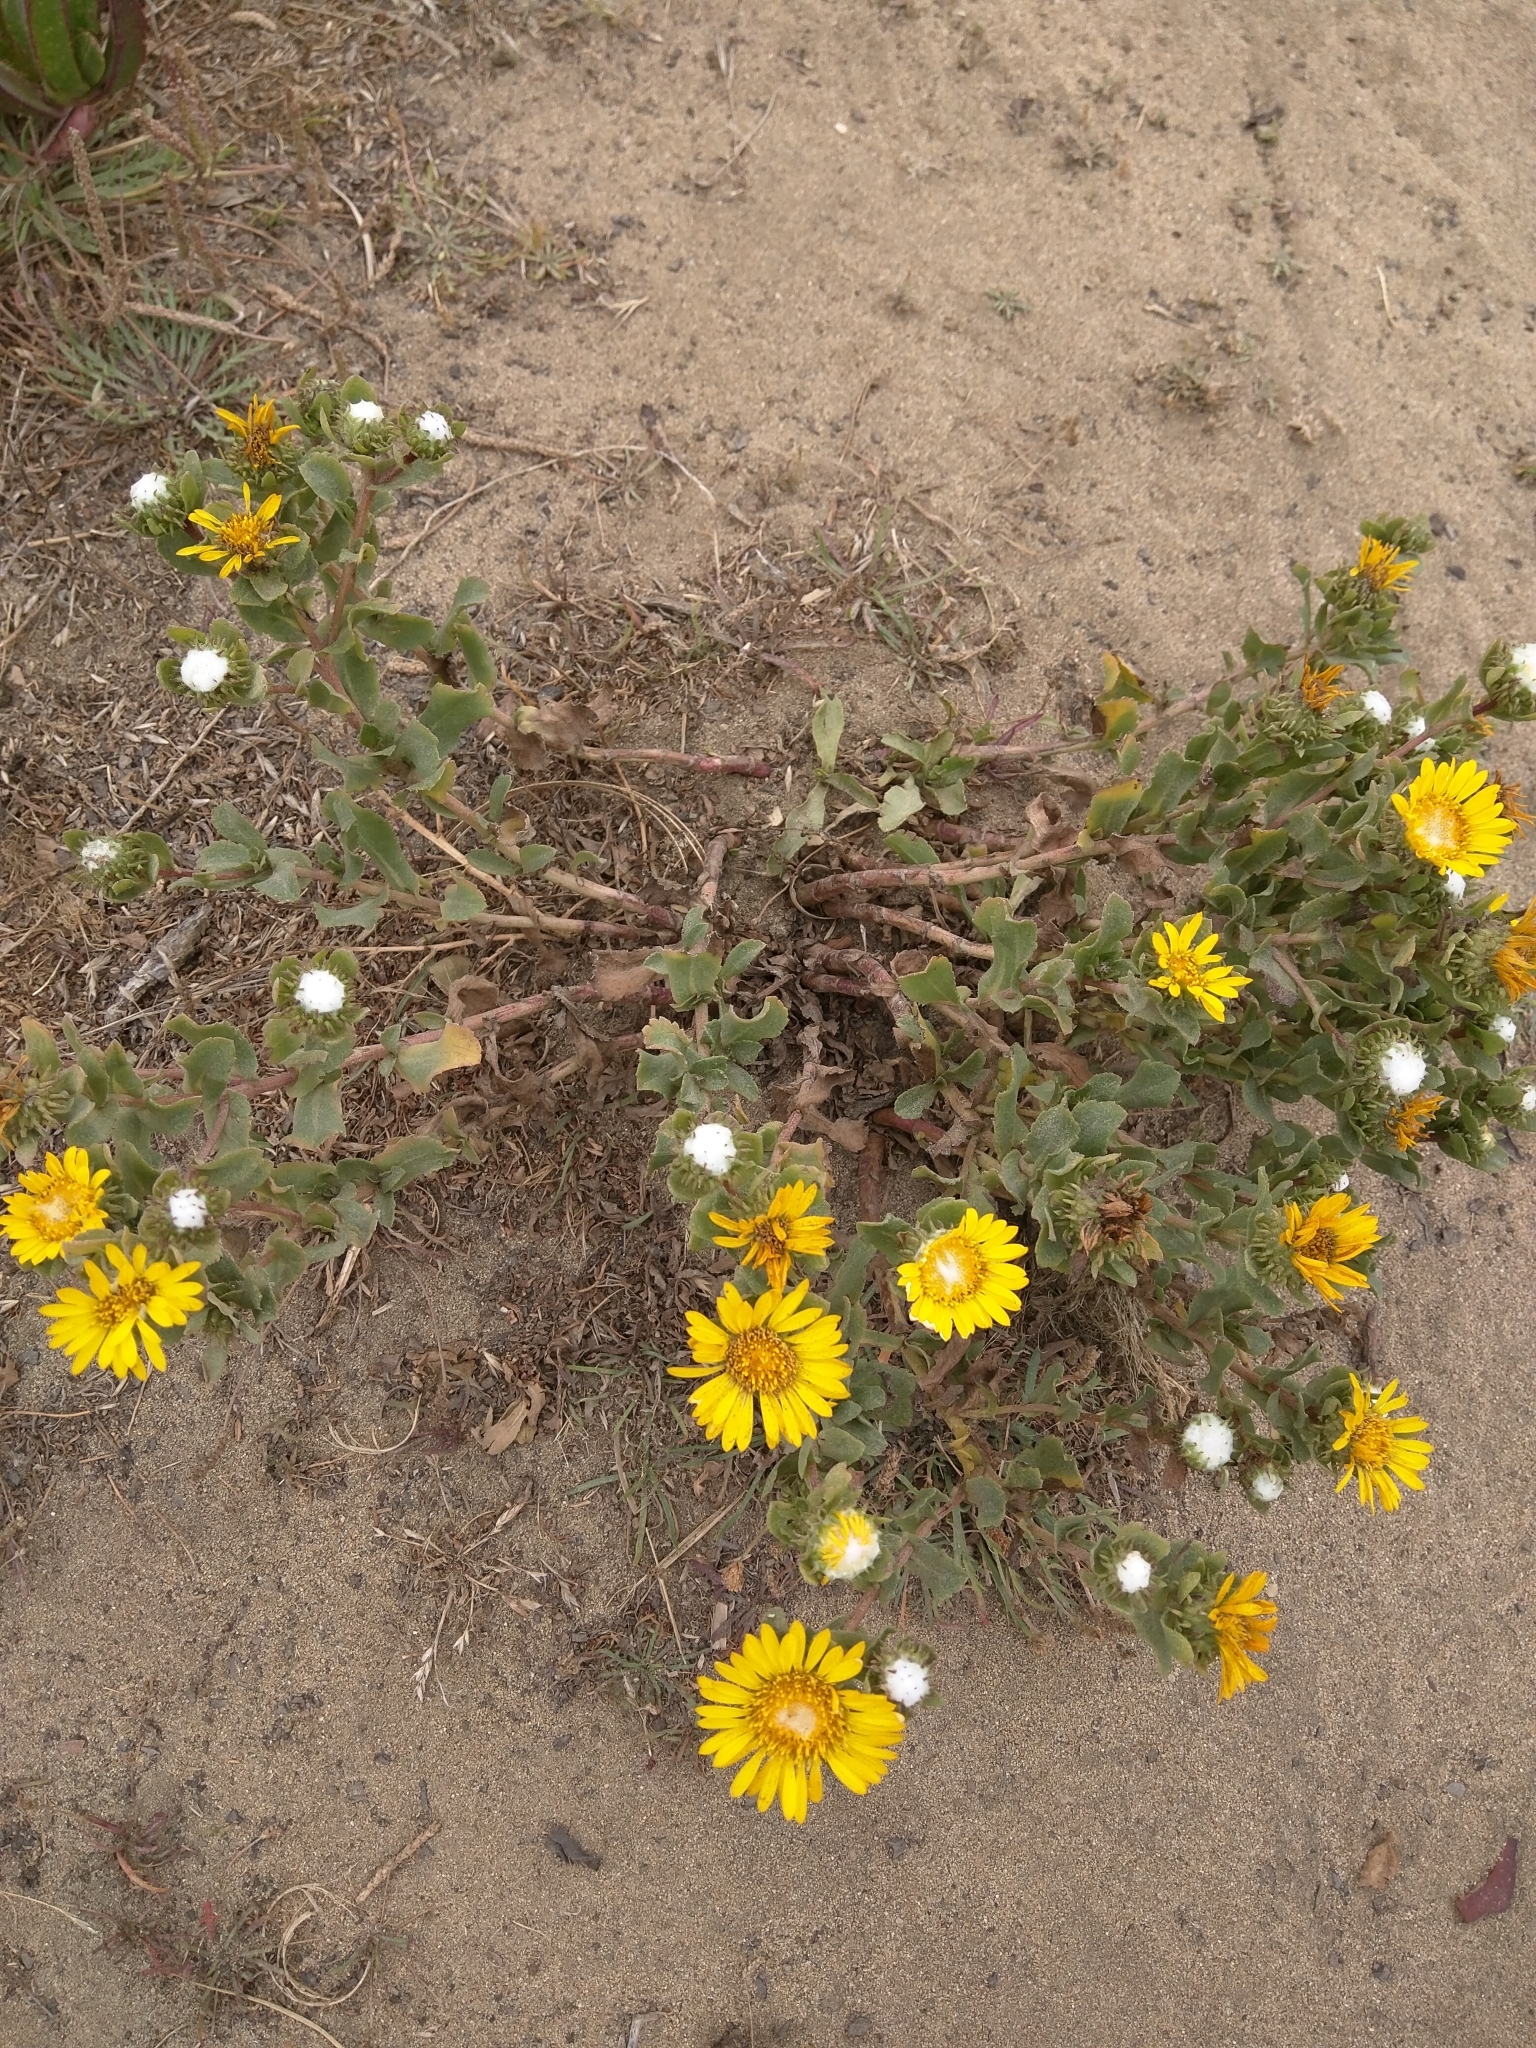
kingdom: Plantae
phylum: Tracheophyta
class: Magnoliopsida
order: Asterales
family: Asteraceae
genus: Grindelia
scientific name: Grindelia hirsutula
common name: Hairy gumweed
